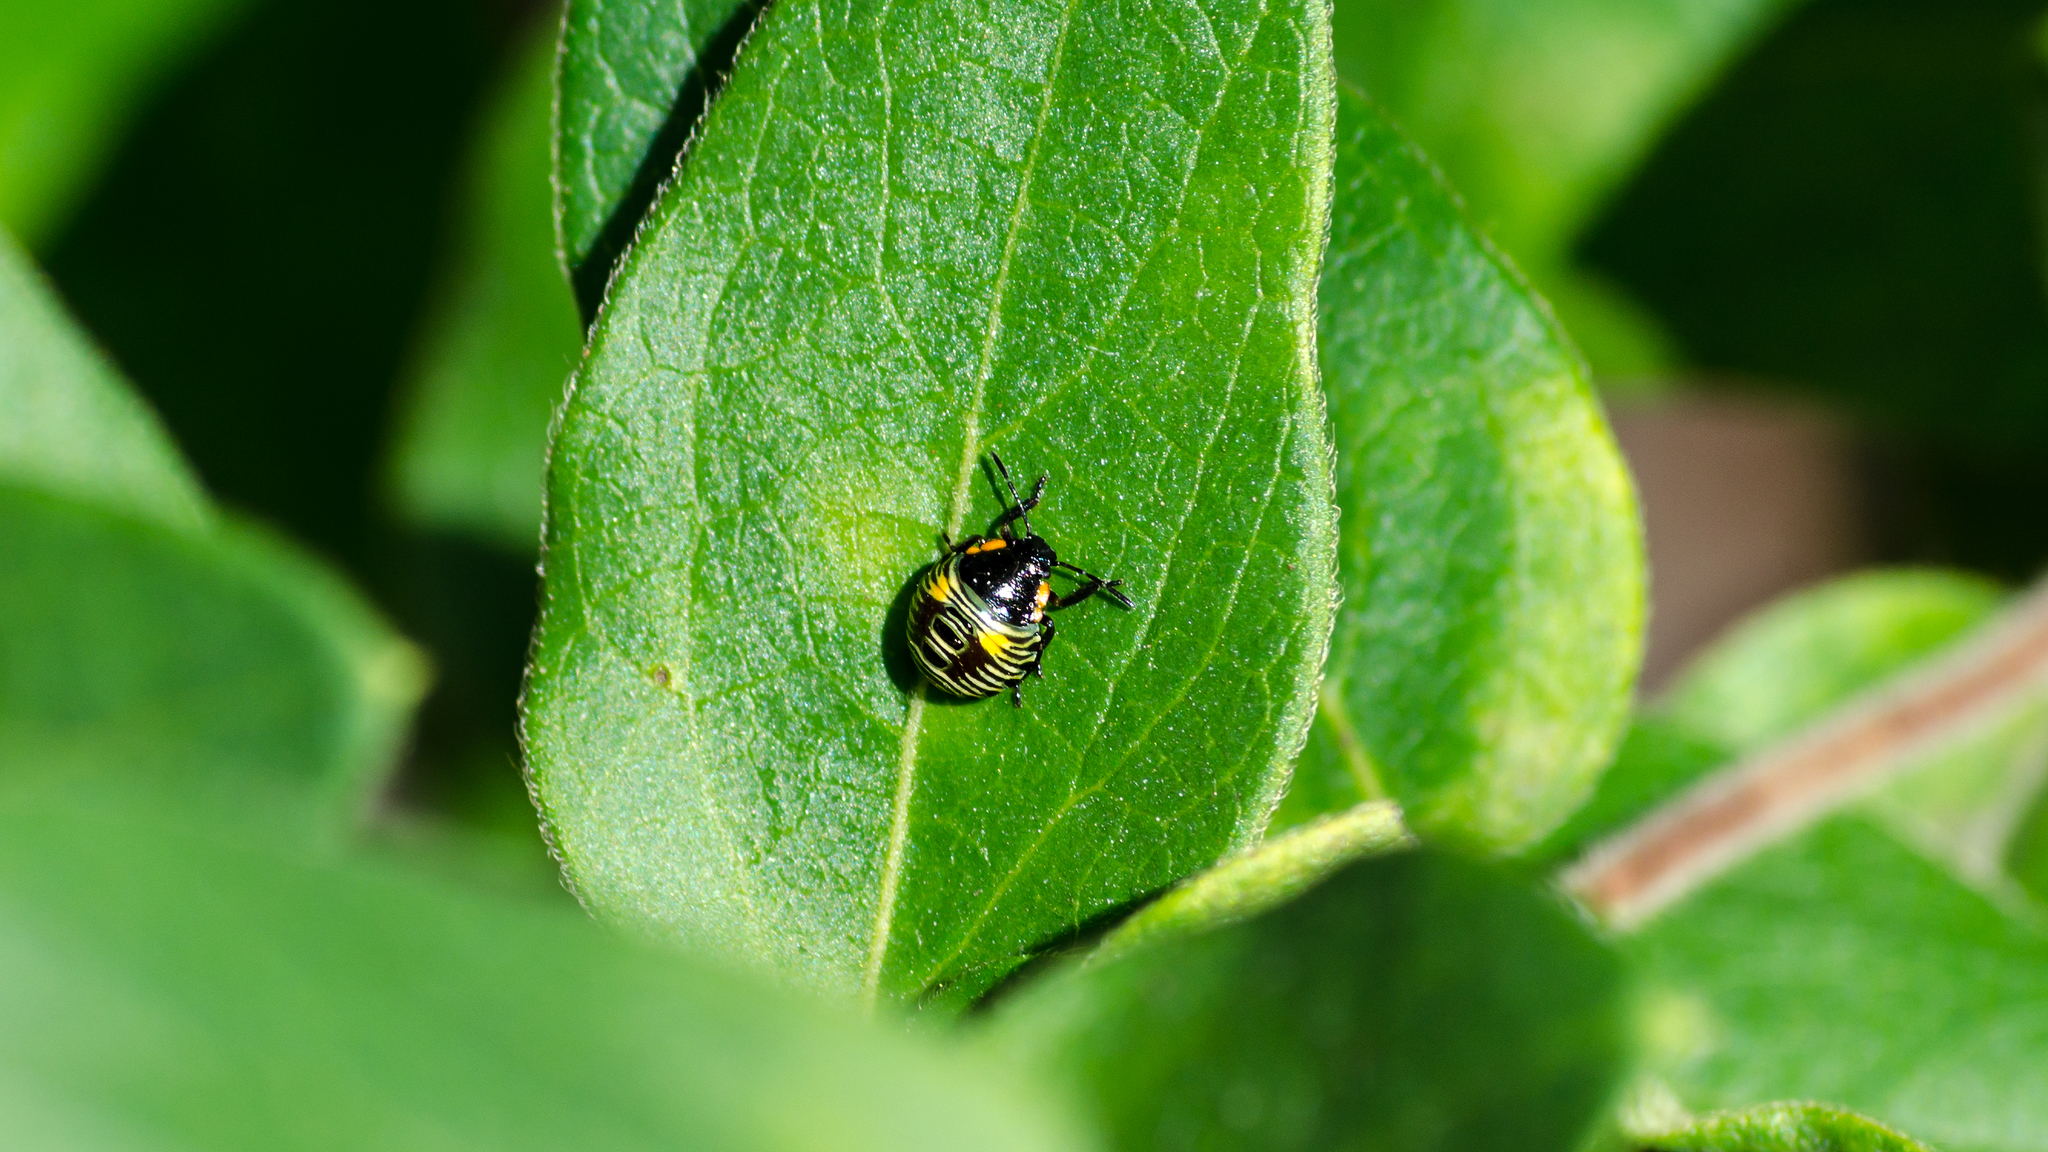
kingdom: Animalia
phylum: Arthropoda
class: Insecta
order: Hemiptera
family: Pentatomidae
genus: Chinavia
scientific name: Chinavia hilaris
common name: Green stink bug
